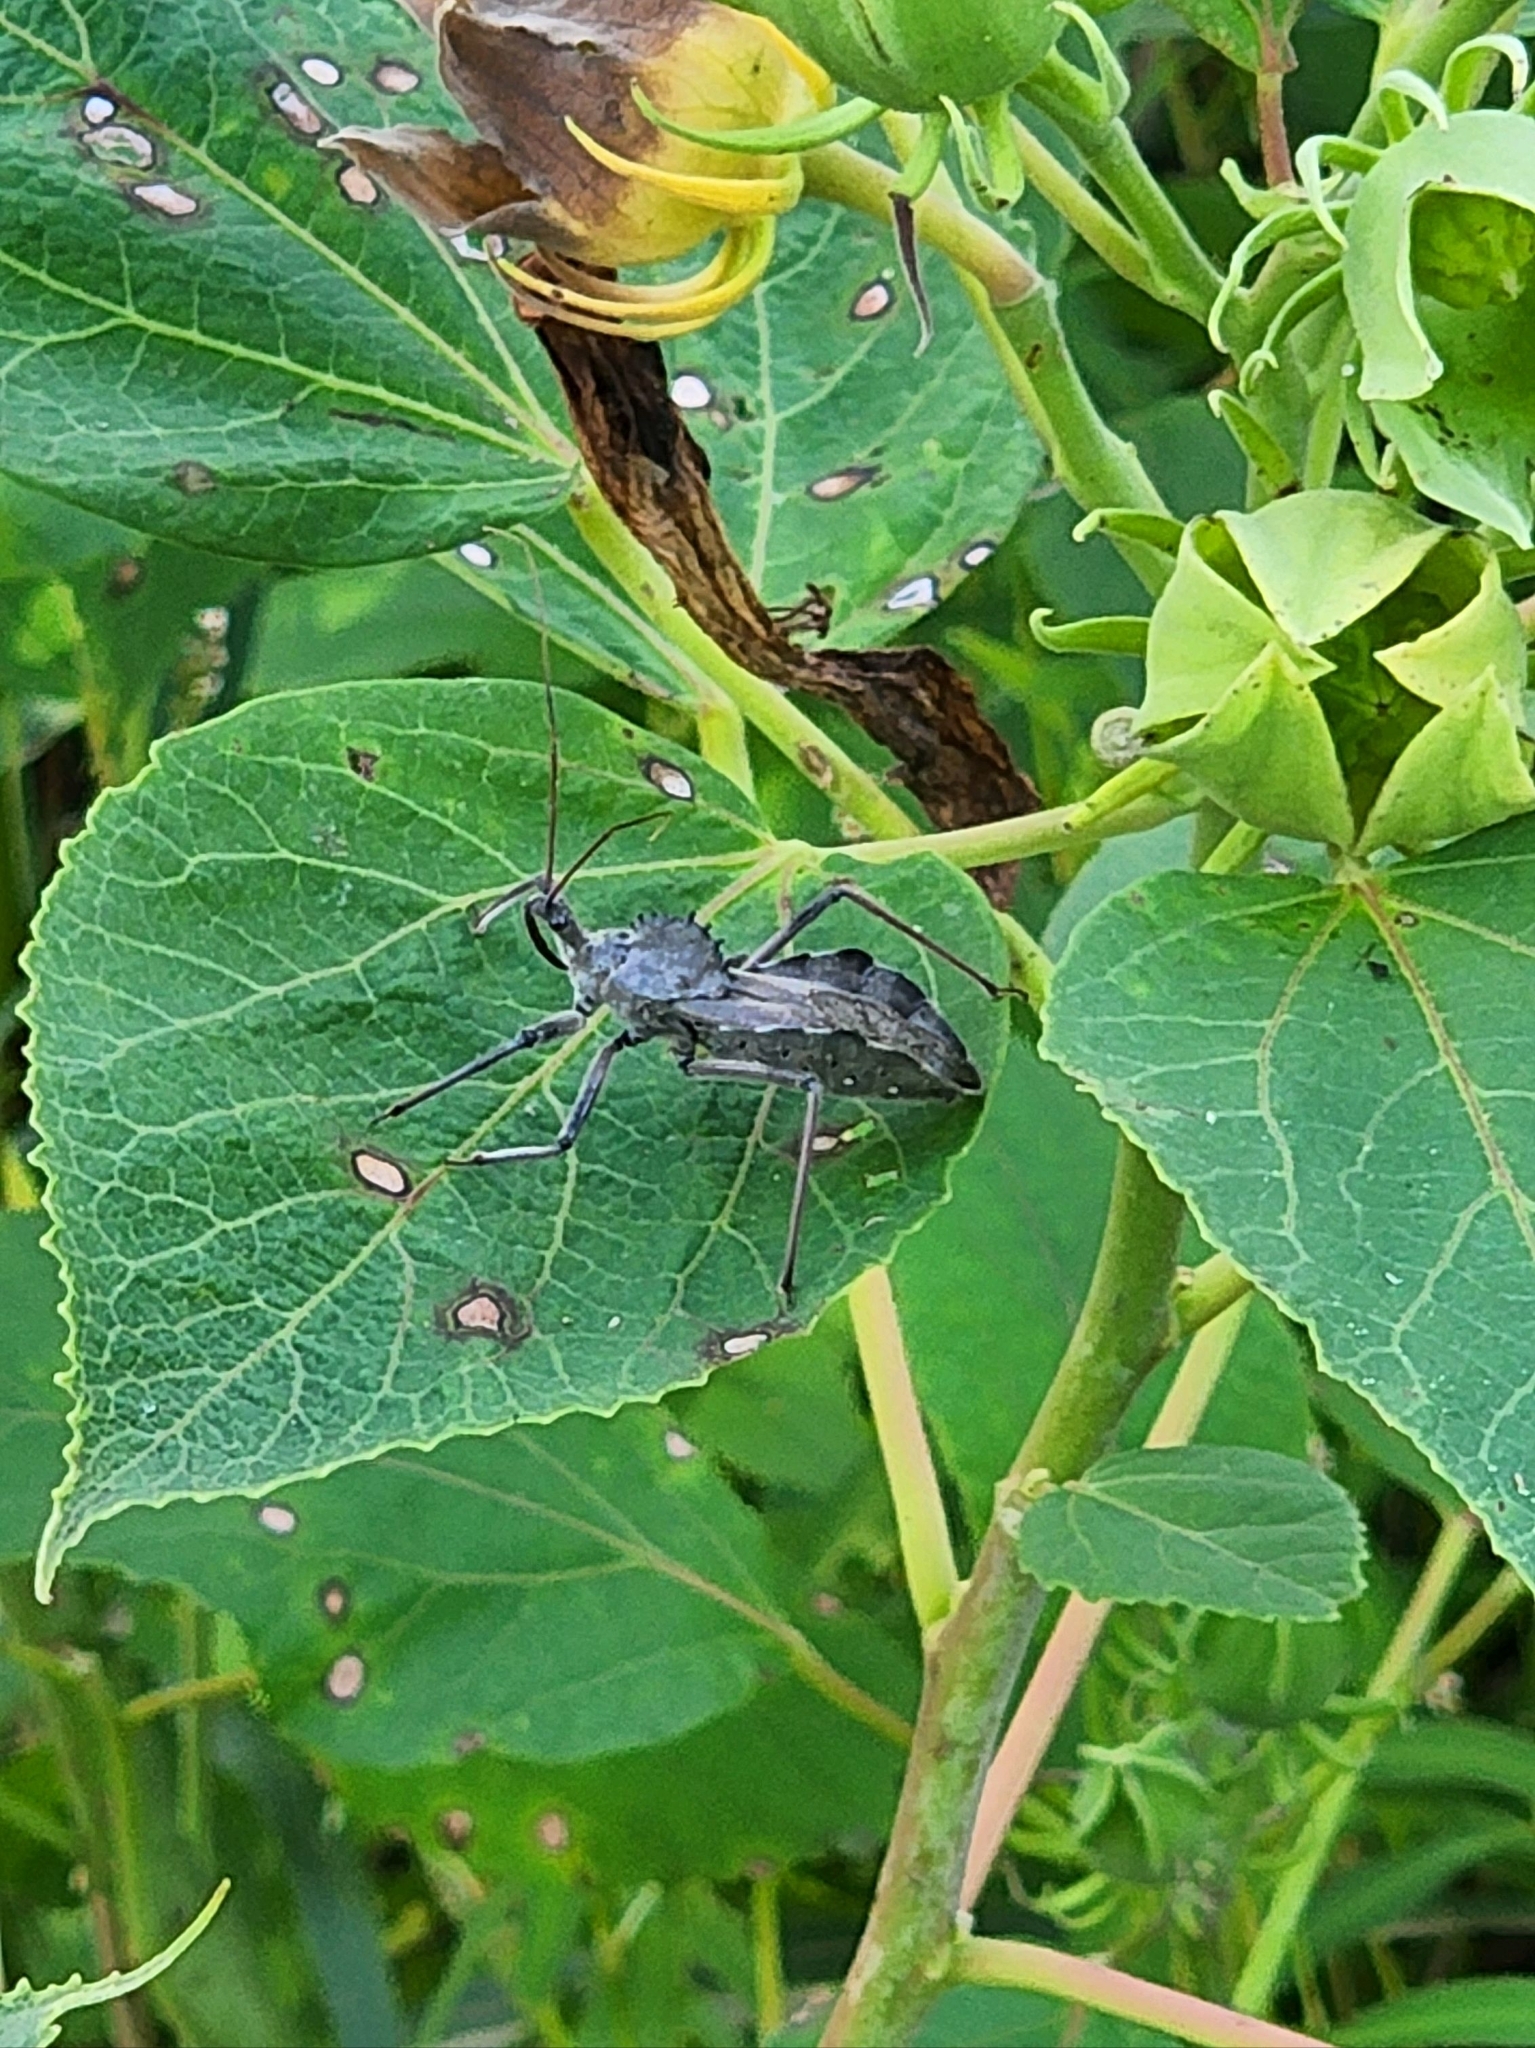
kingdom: Animalia
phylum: Arthropoda
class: Insecta
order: Hemiptera
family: Reduviidae
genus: Arilus
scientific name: Arilus cristatus
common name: North american wheel bug
